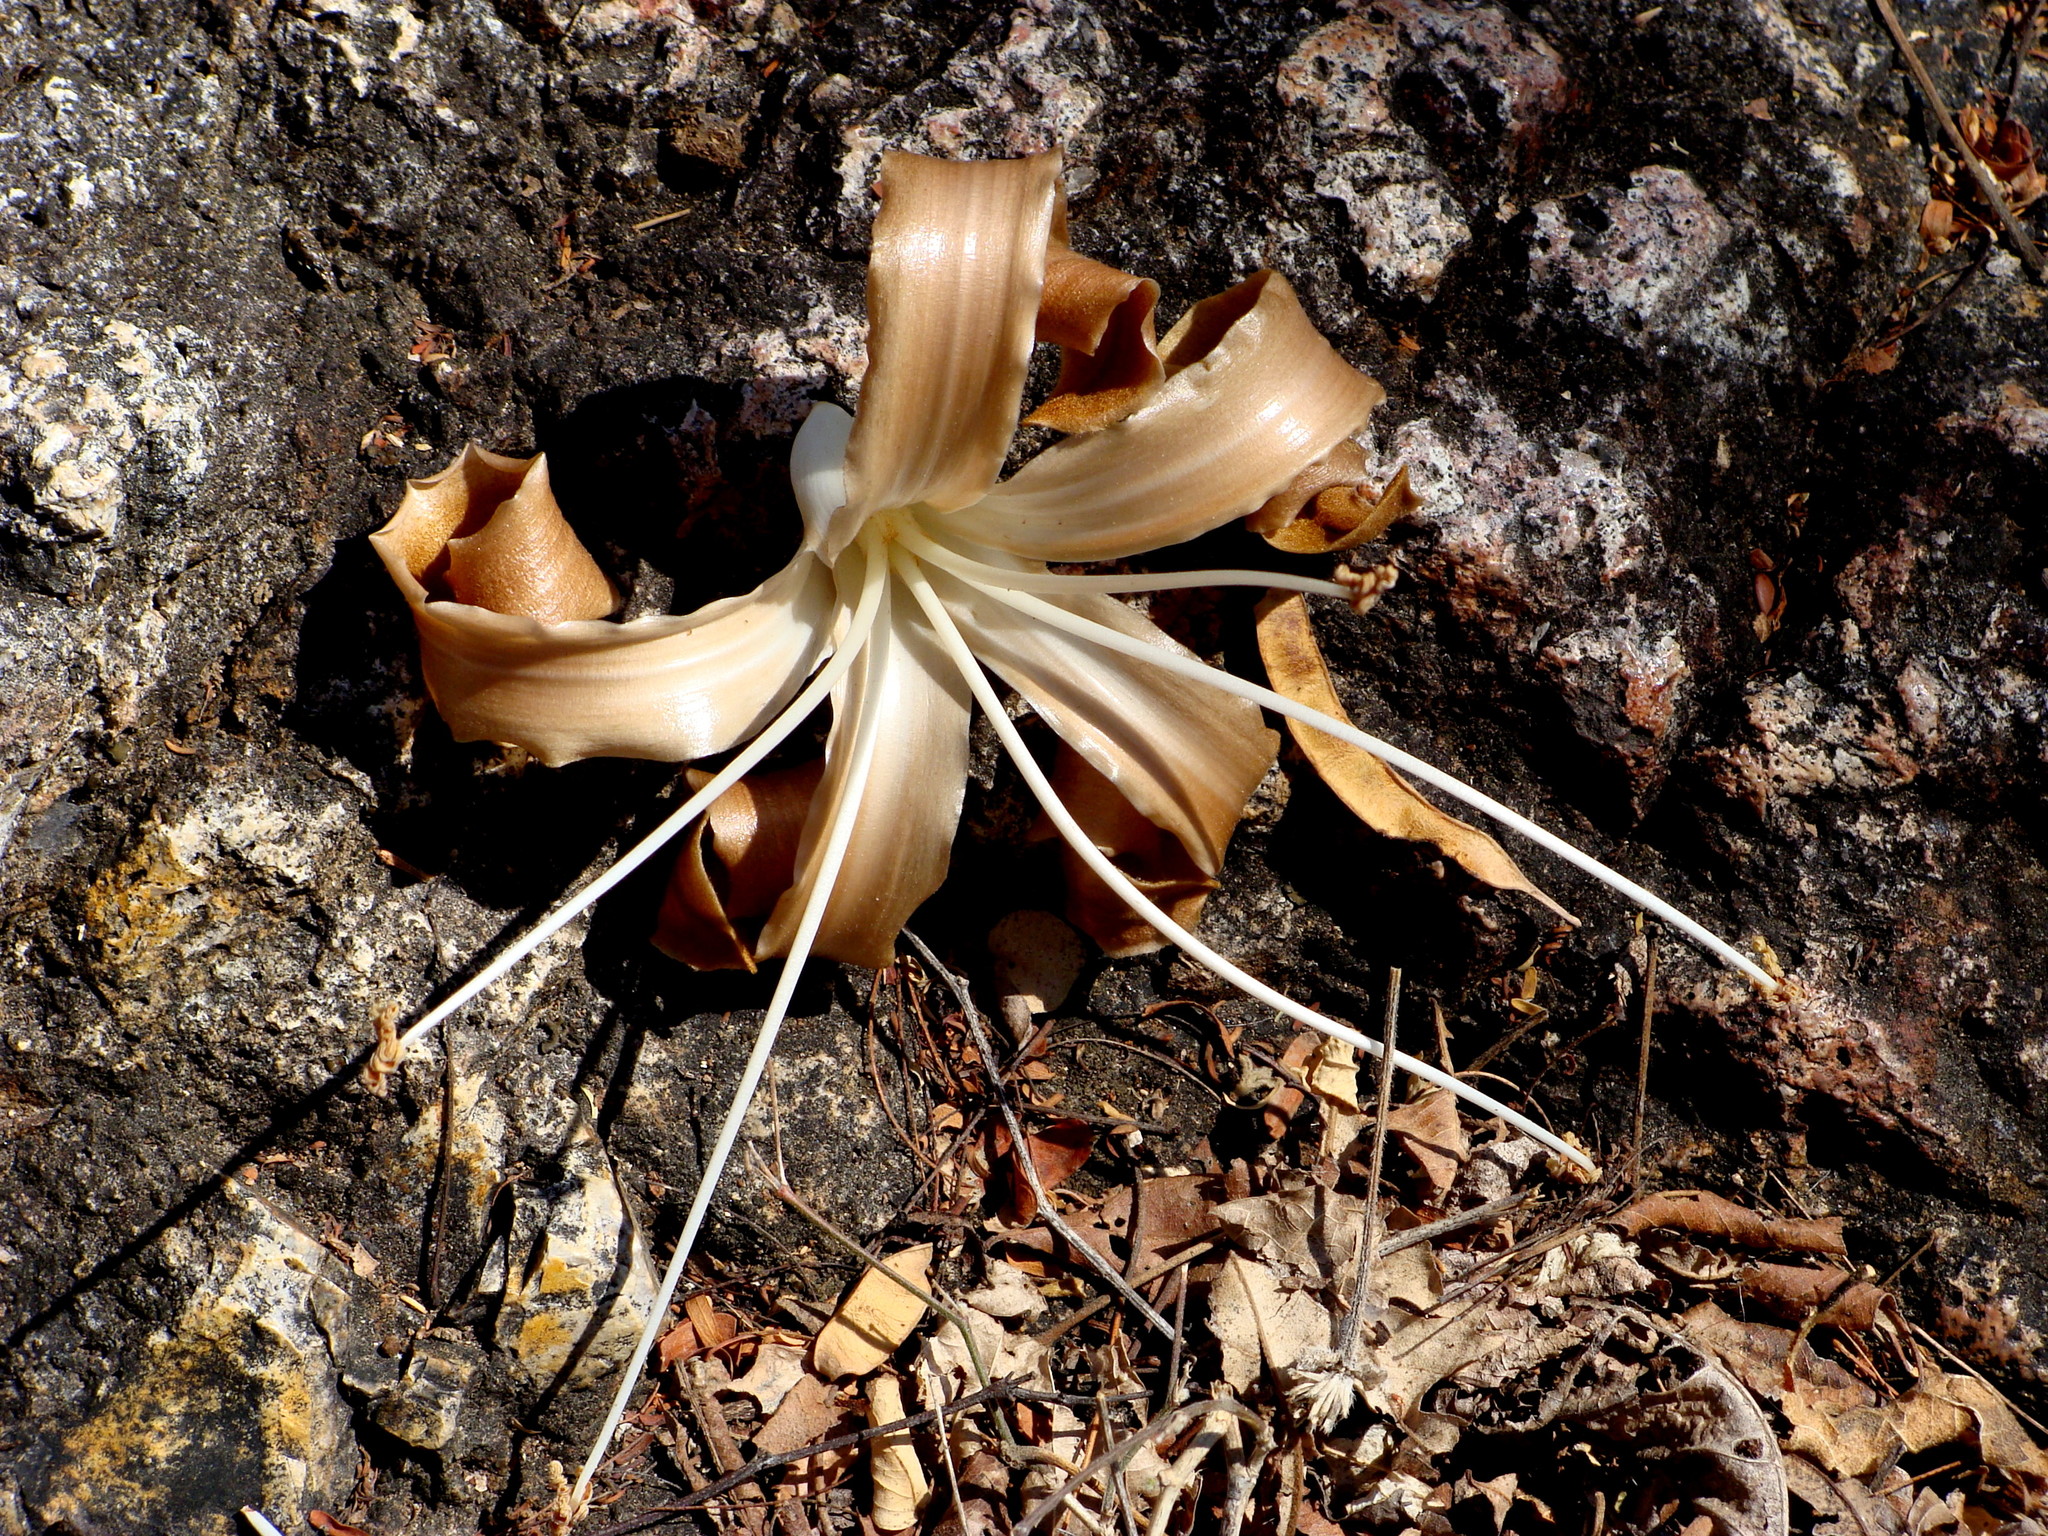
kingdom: Plantae
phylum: Tracheophyta
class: Magnoliopsida
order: Malvales
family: Malvaceae
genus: Ceiba
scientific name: Ceiba aesculifolia
